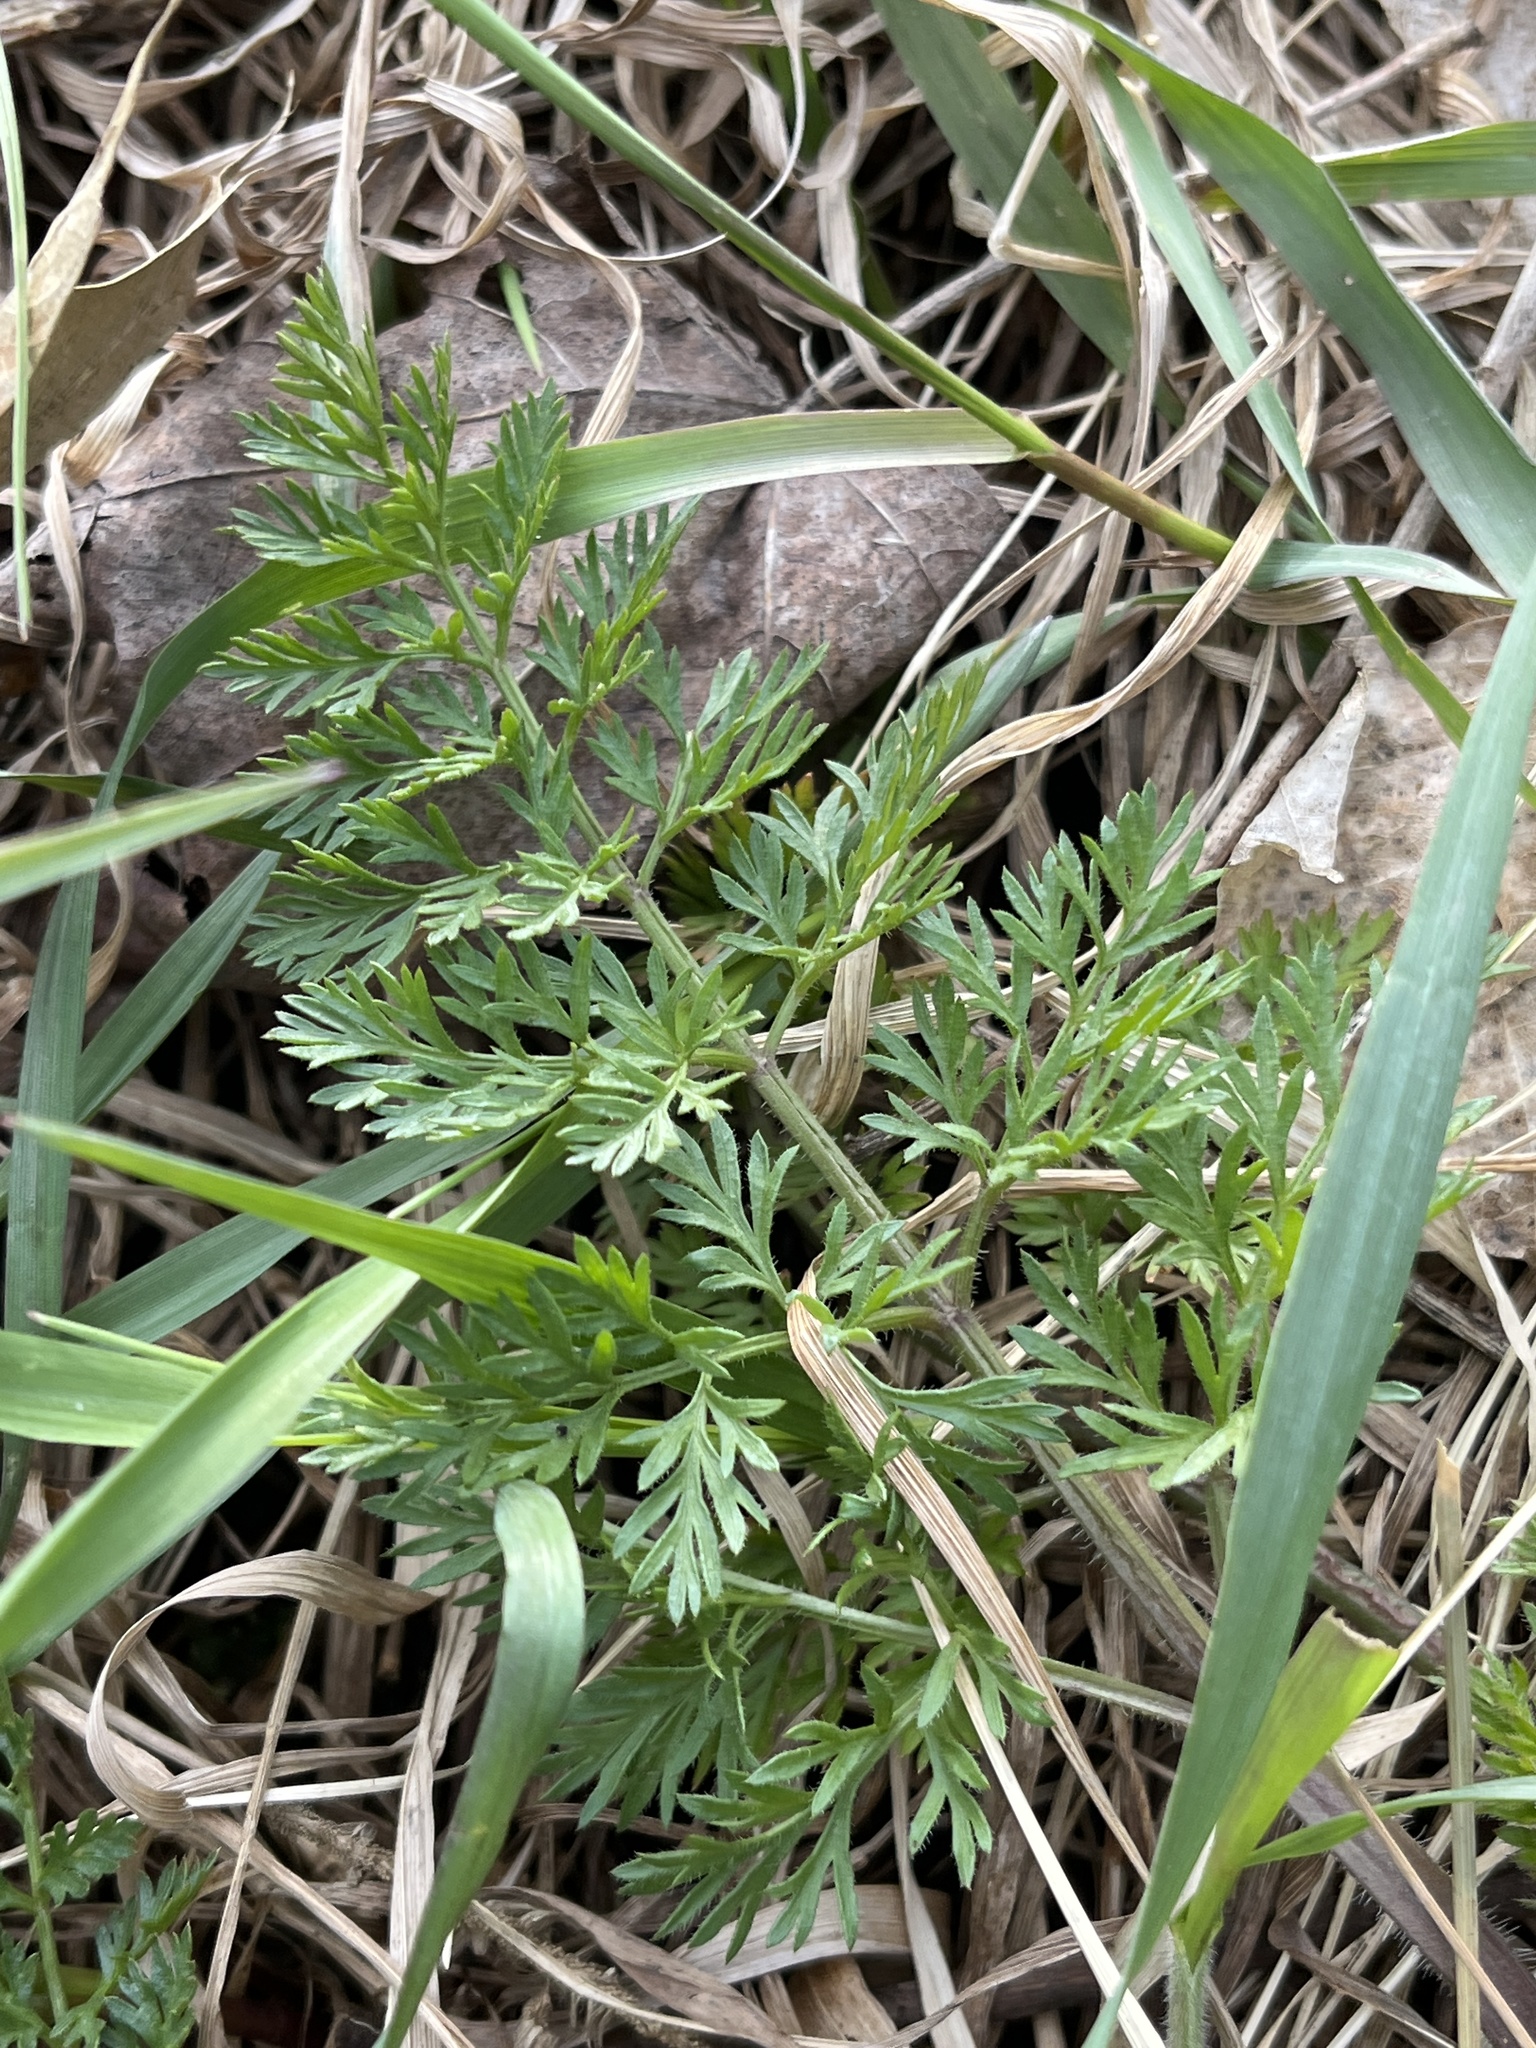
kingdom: Plantae
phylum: Tracheophyta
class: Magnoliopsida
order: Apiales
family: Apiaceae
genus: Daucus
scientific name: Daucus carota
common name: Wild carrot
